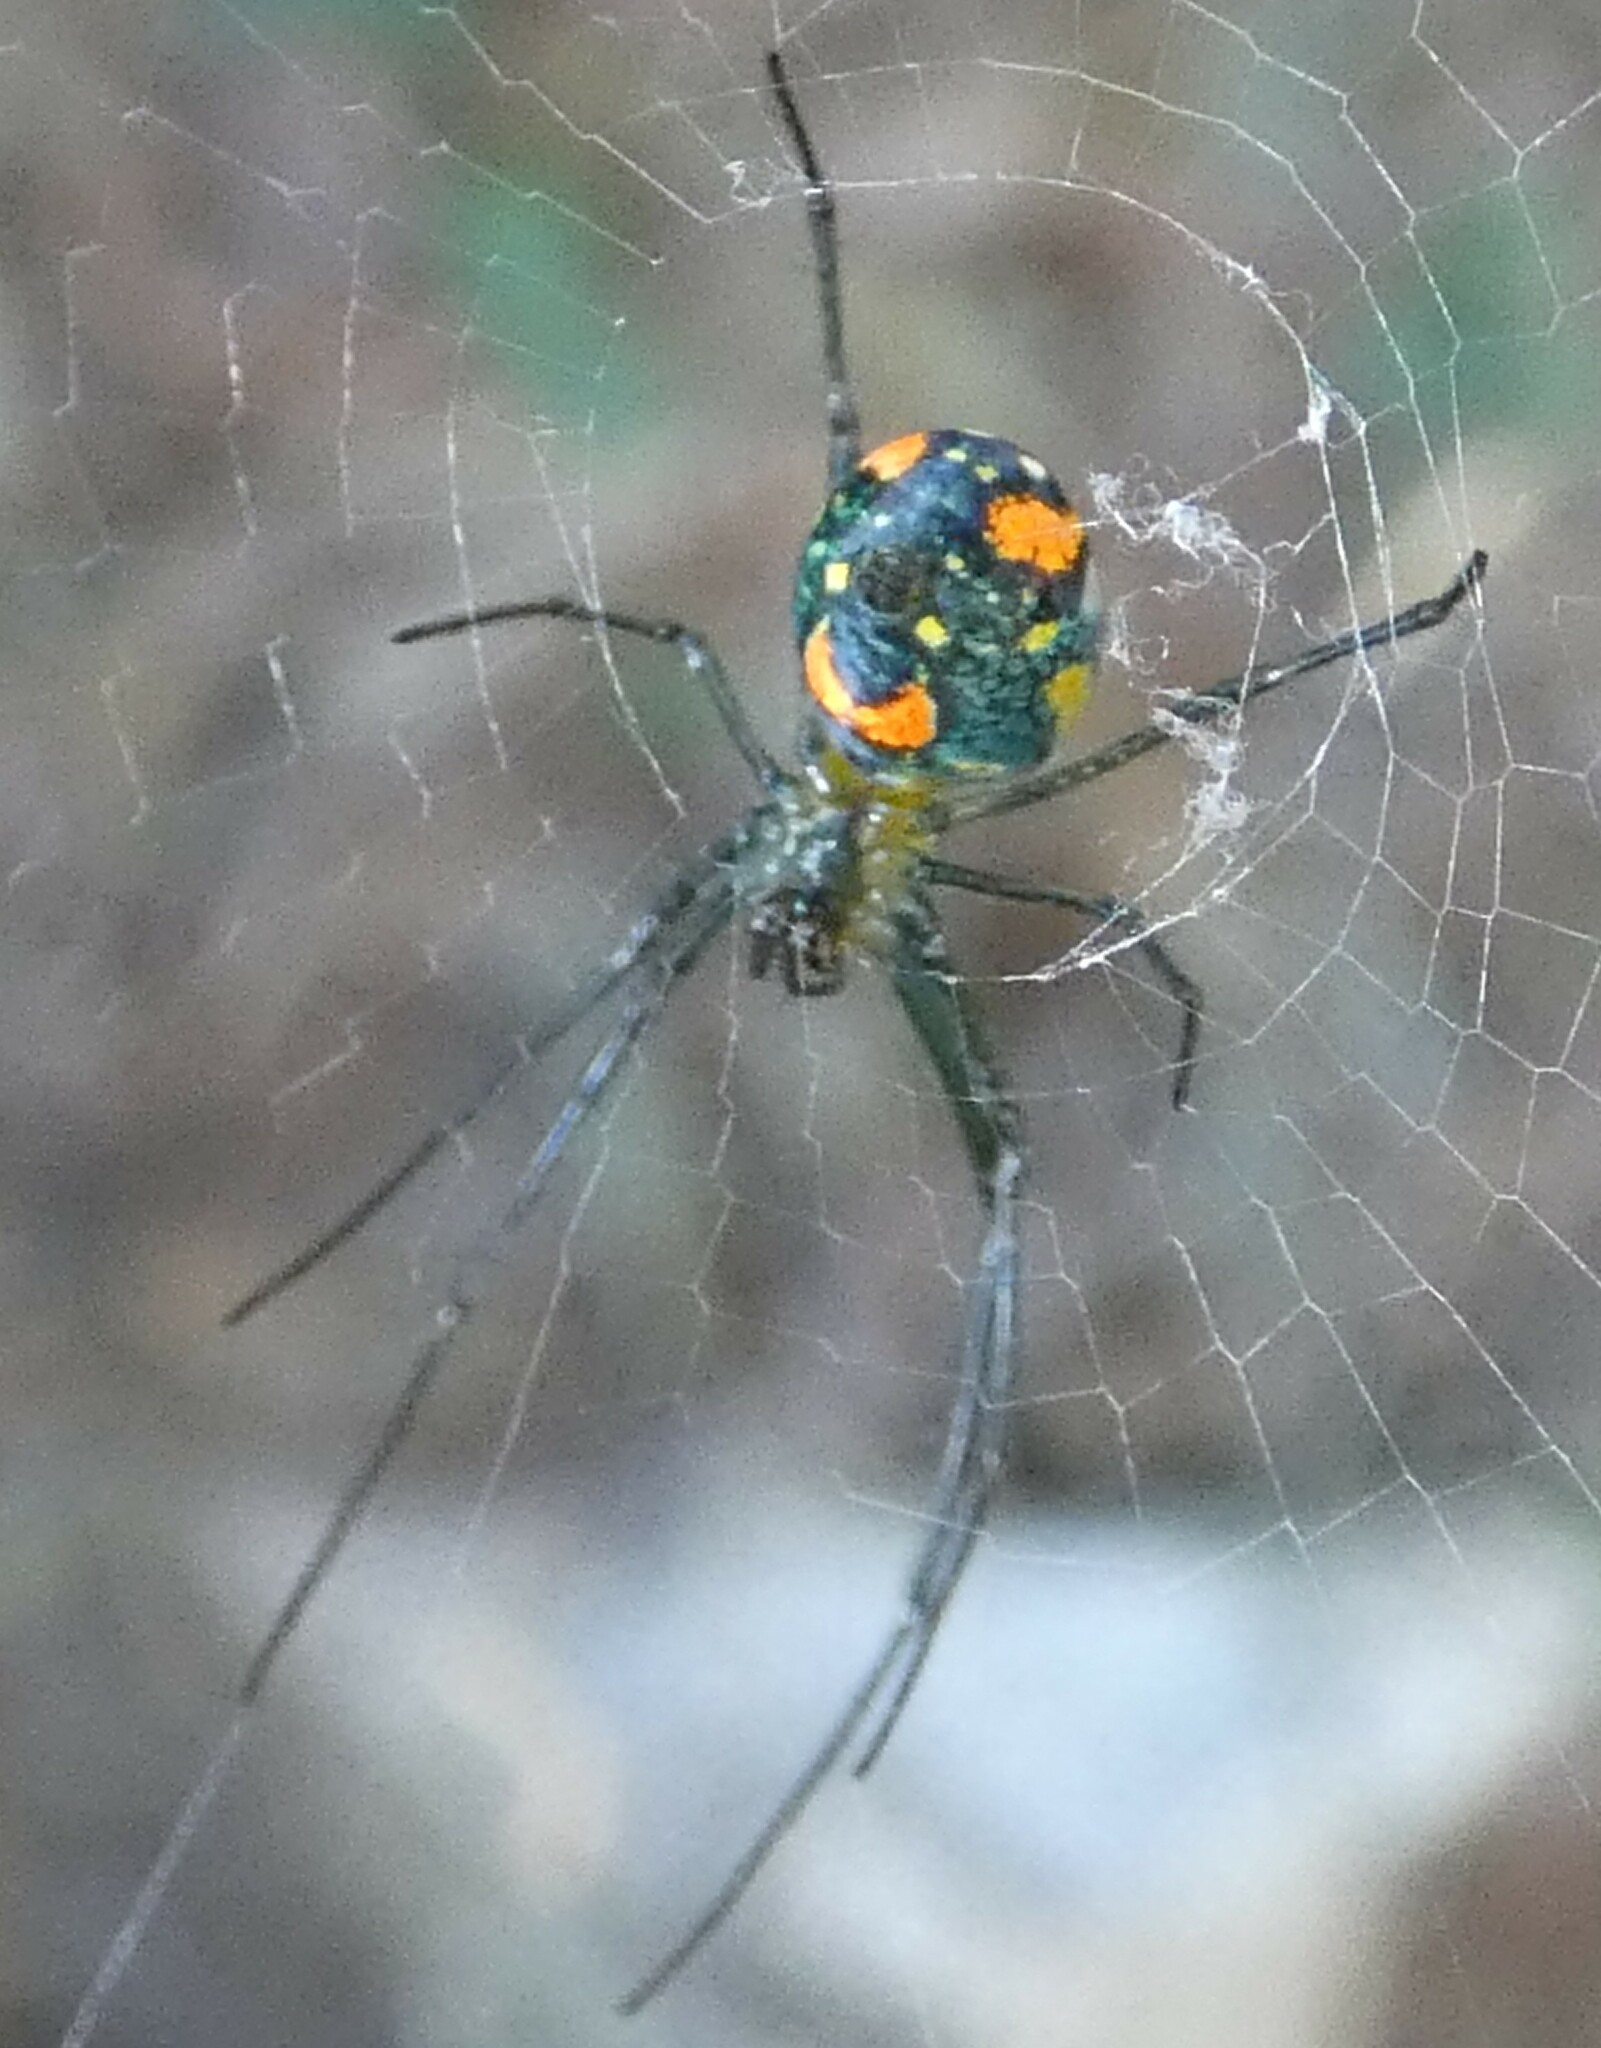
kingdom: Animalia
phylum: Arthropoda
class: Arachnida
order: Araneae
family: Tetragnathidae
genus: Leucauge
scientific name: Leucauge argyrobapta
